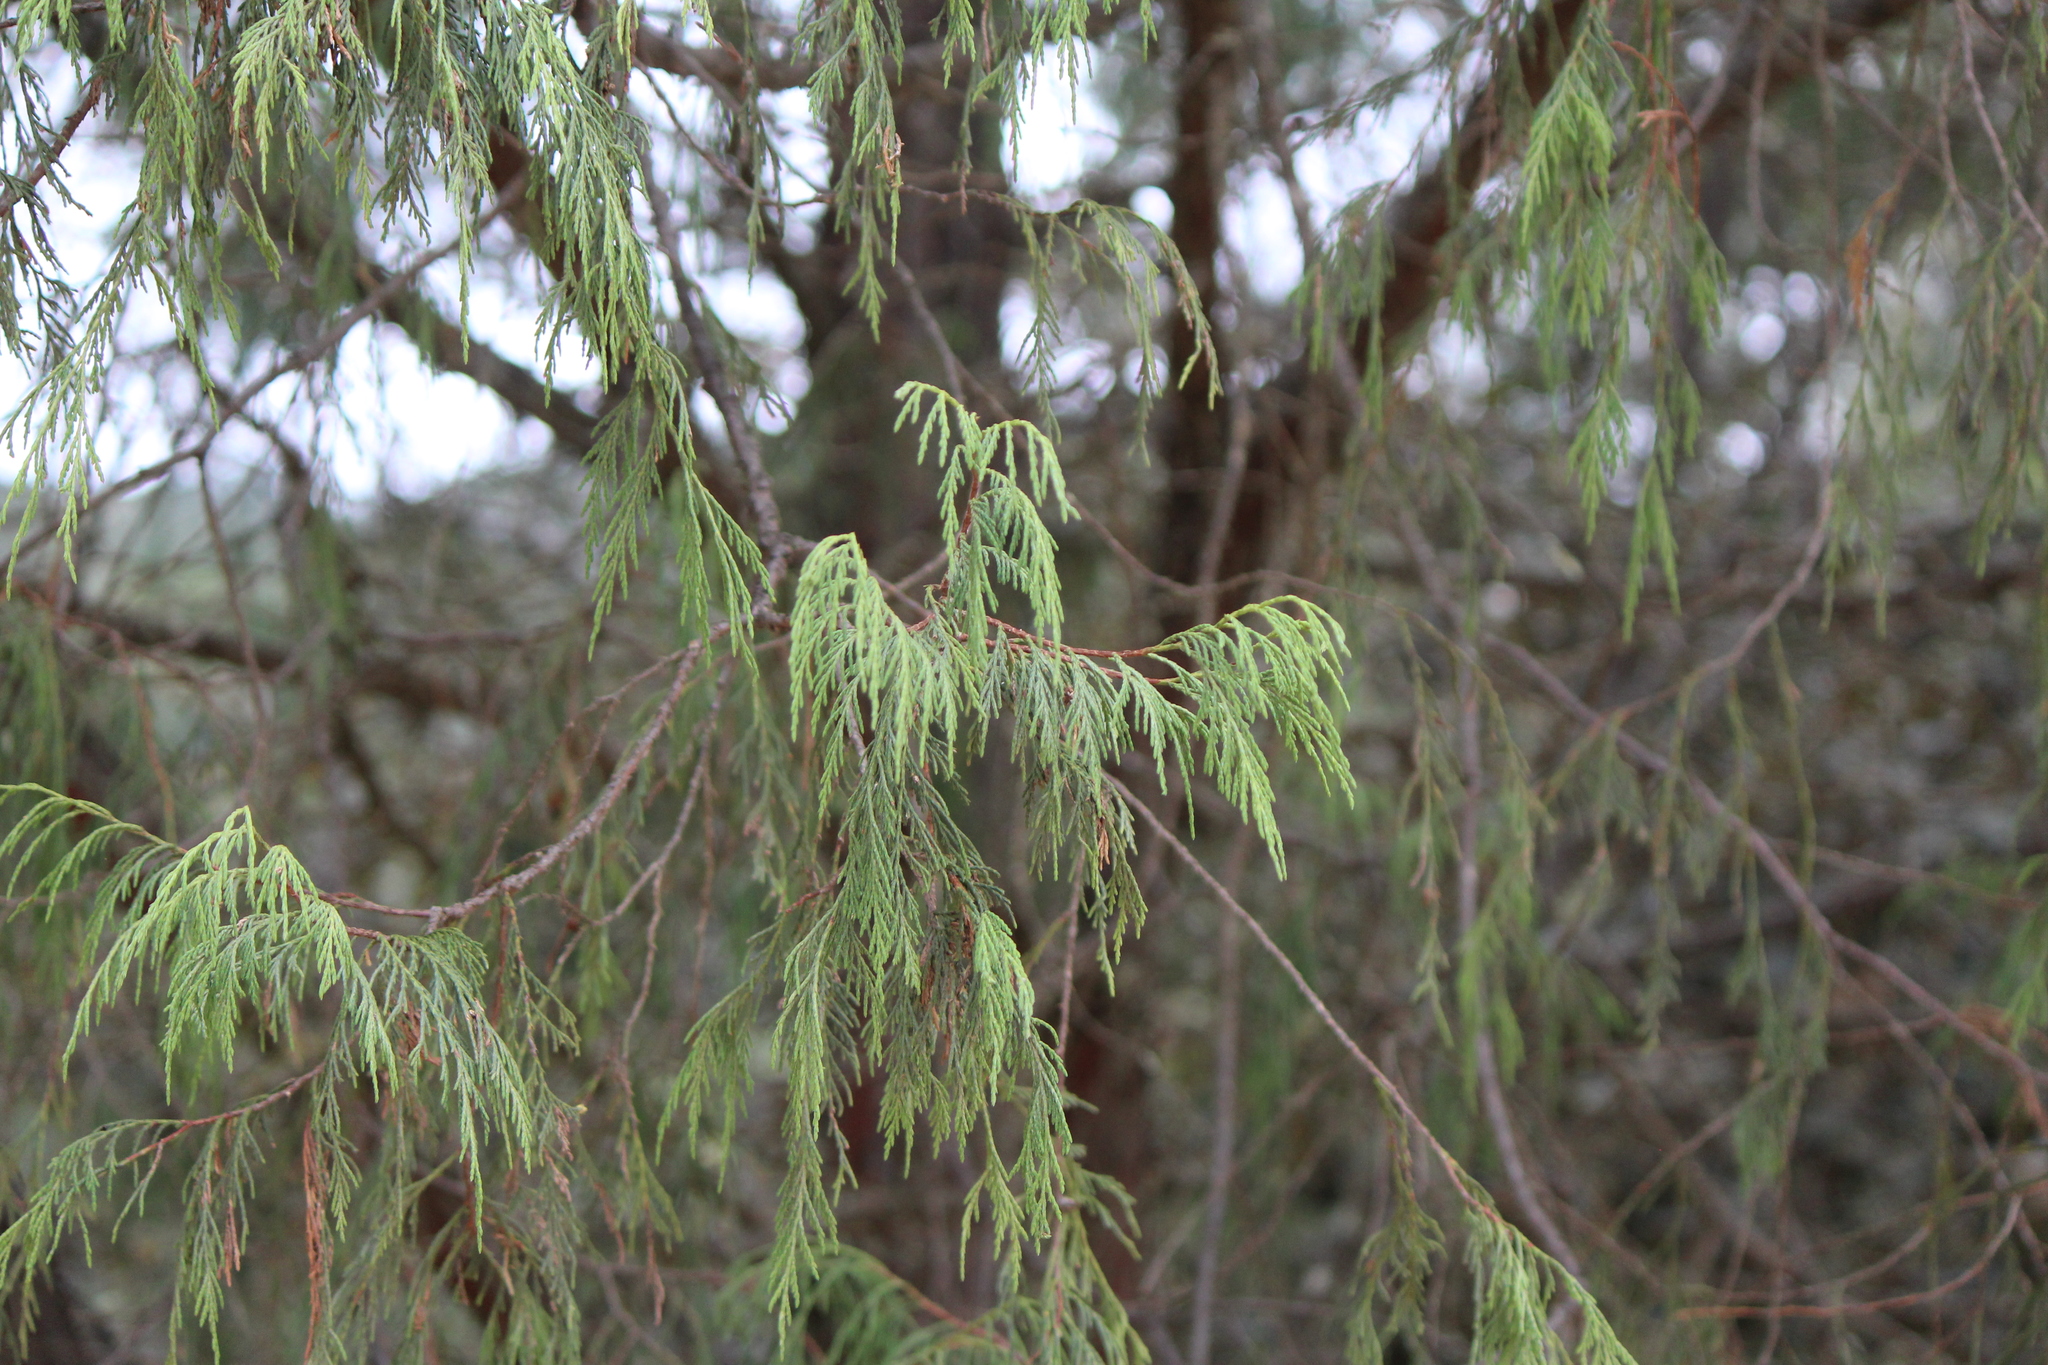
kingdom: Plantae
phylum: Tracheophyta
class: Pinopsida
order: Pinales
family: Cupressaceae
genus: Juniperus
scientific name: Juniperus flaccida
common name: Drooping juniper
